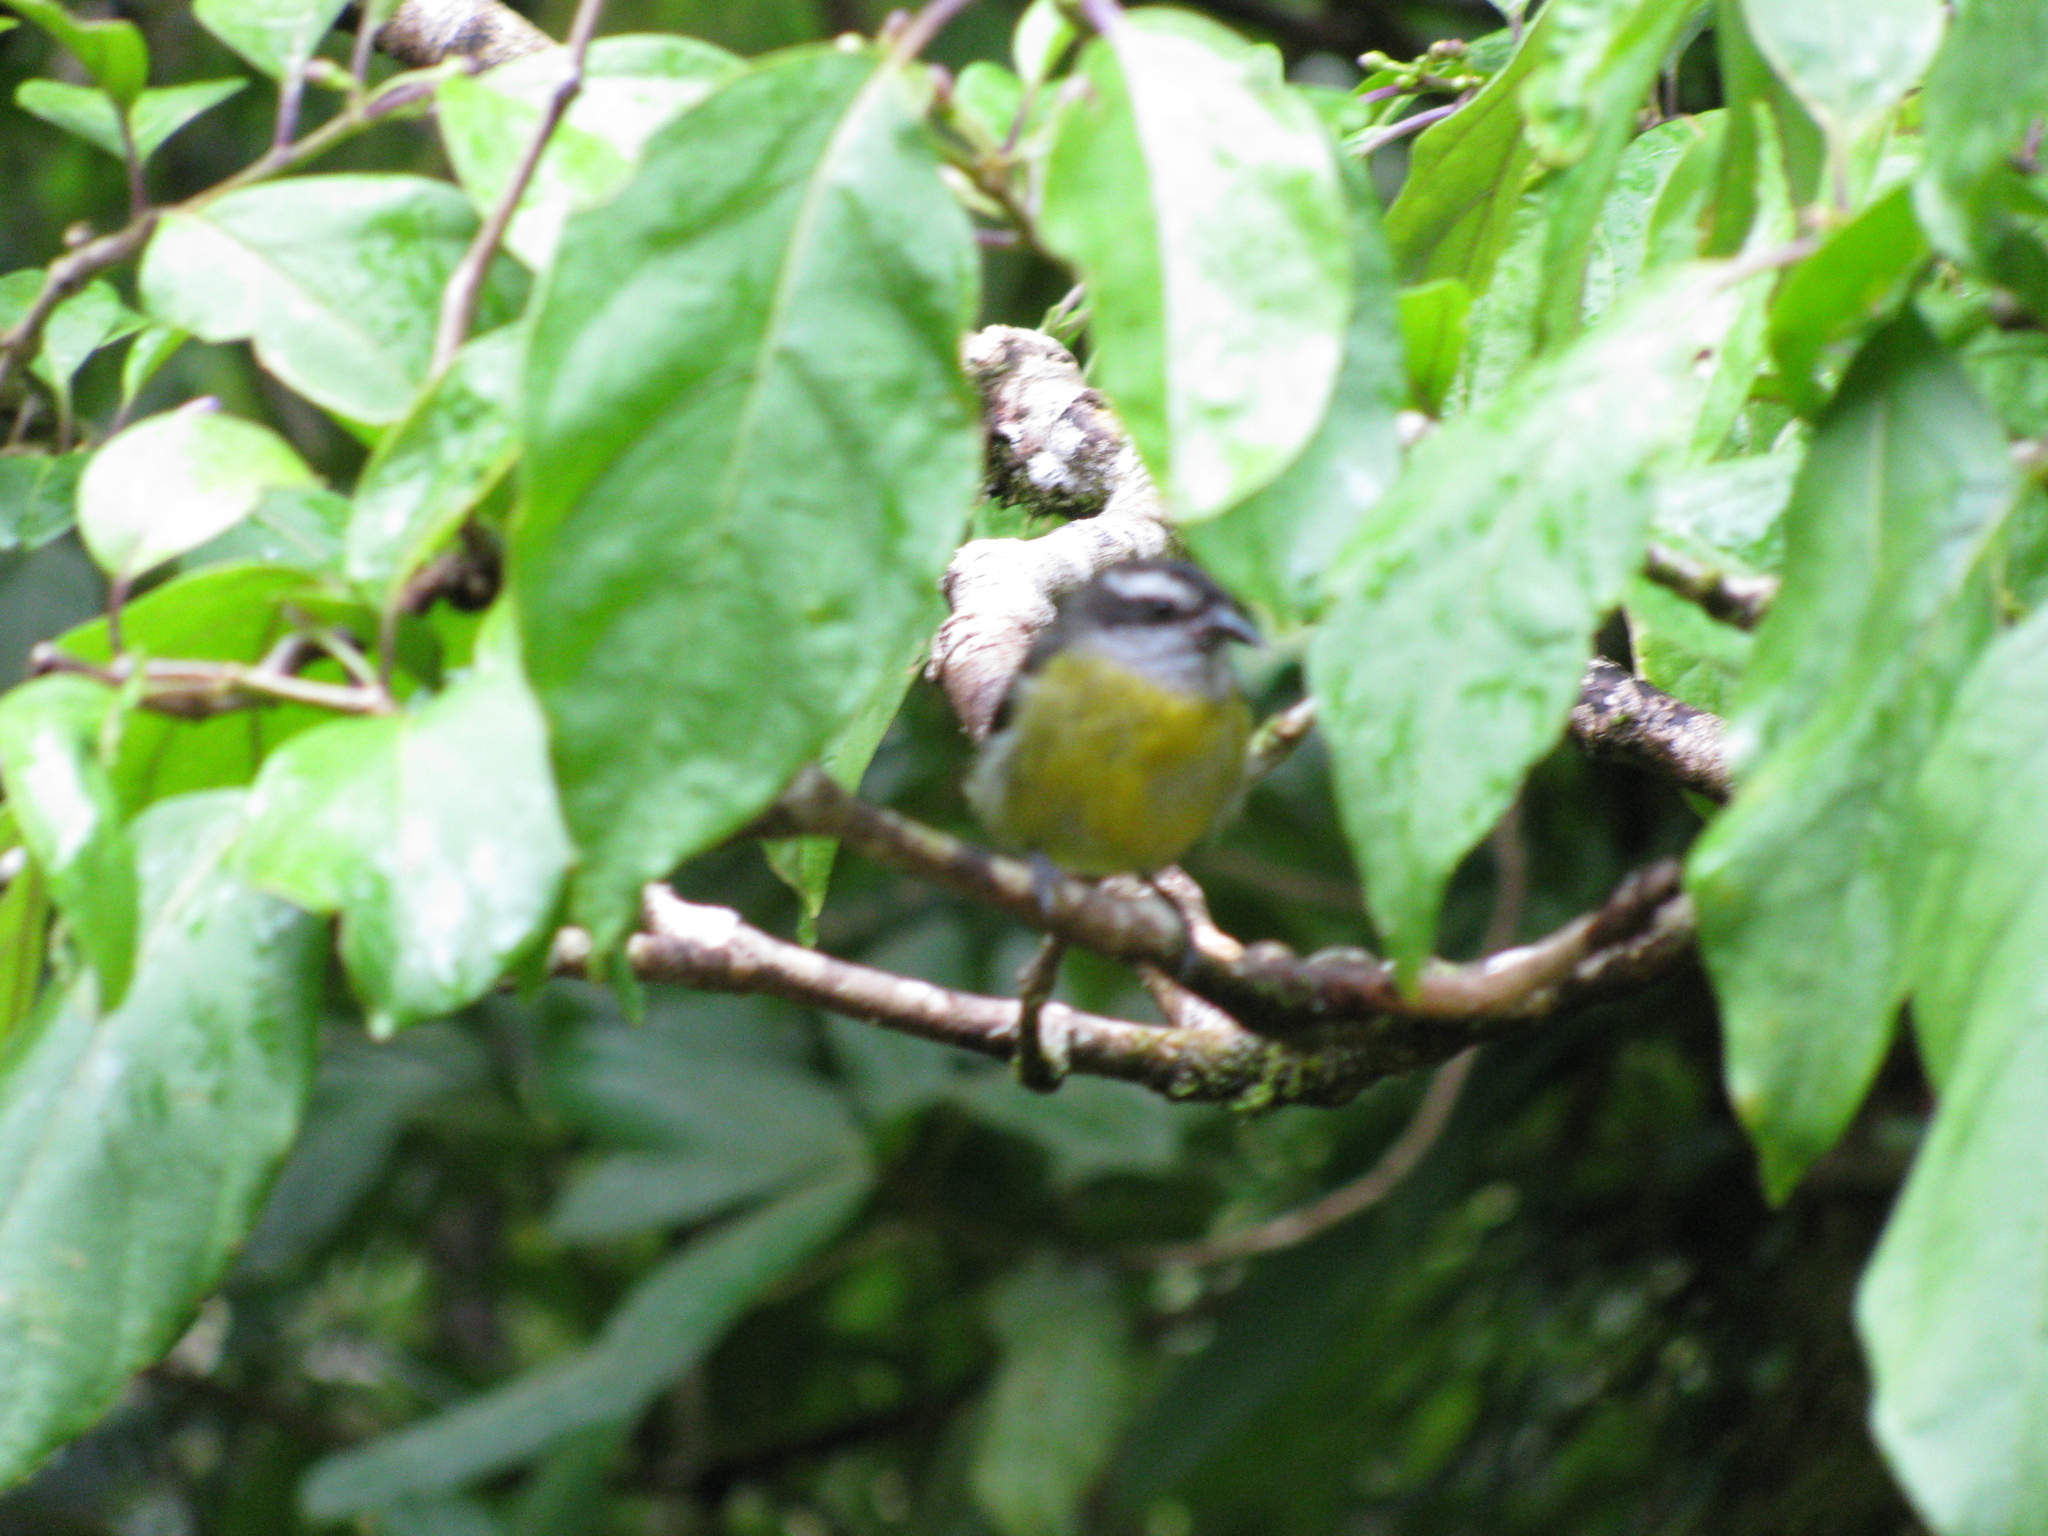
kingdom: Animalia
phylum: Chordata
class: Aves
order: Passeriformes
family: Thraupidae
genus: Coereba
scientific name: Coereba flaveola
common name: Bananaquit
